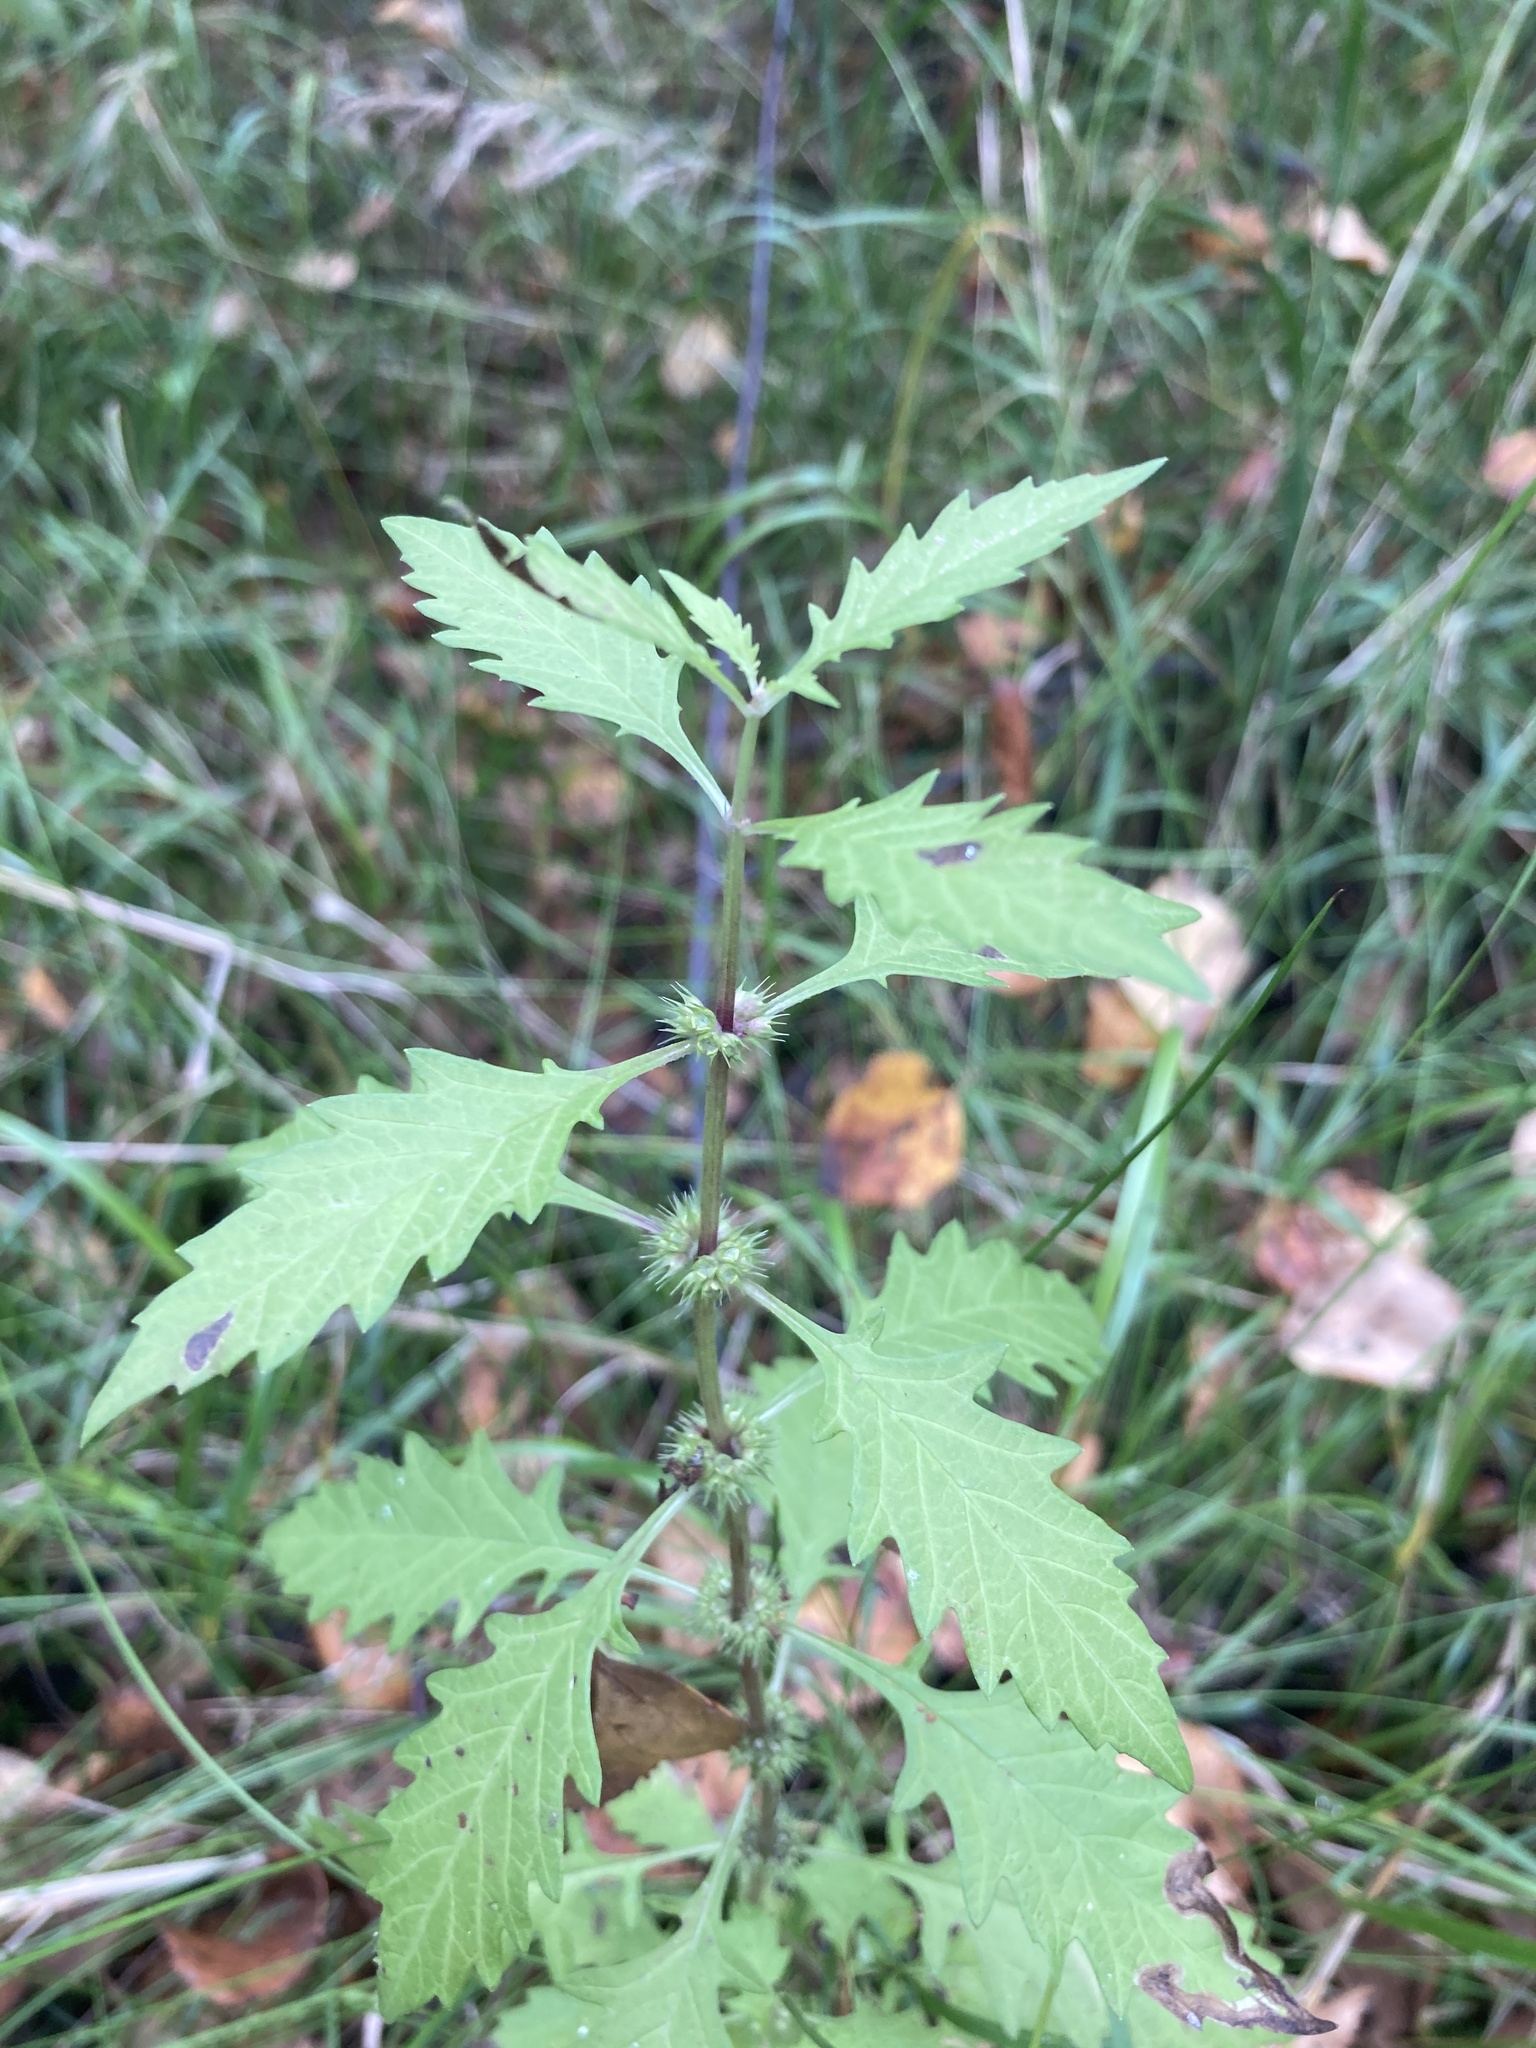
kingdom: Plantae
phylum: Tracheophyta
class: Magnoliopsida
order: Lamiales
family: Lamiaceae
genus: Lycopus
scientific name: Lycopus europaeus
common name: European bugleweed
